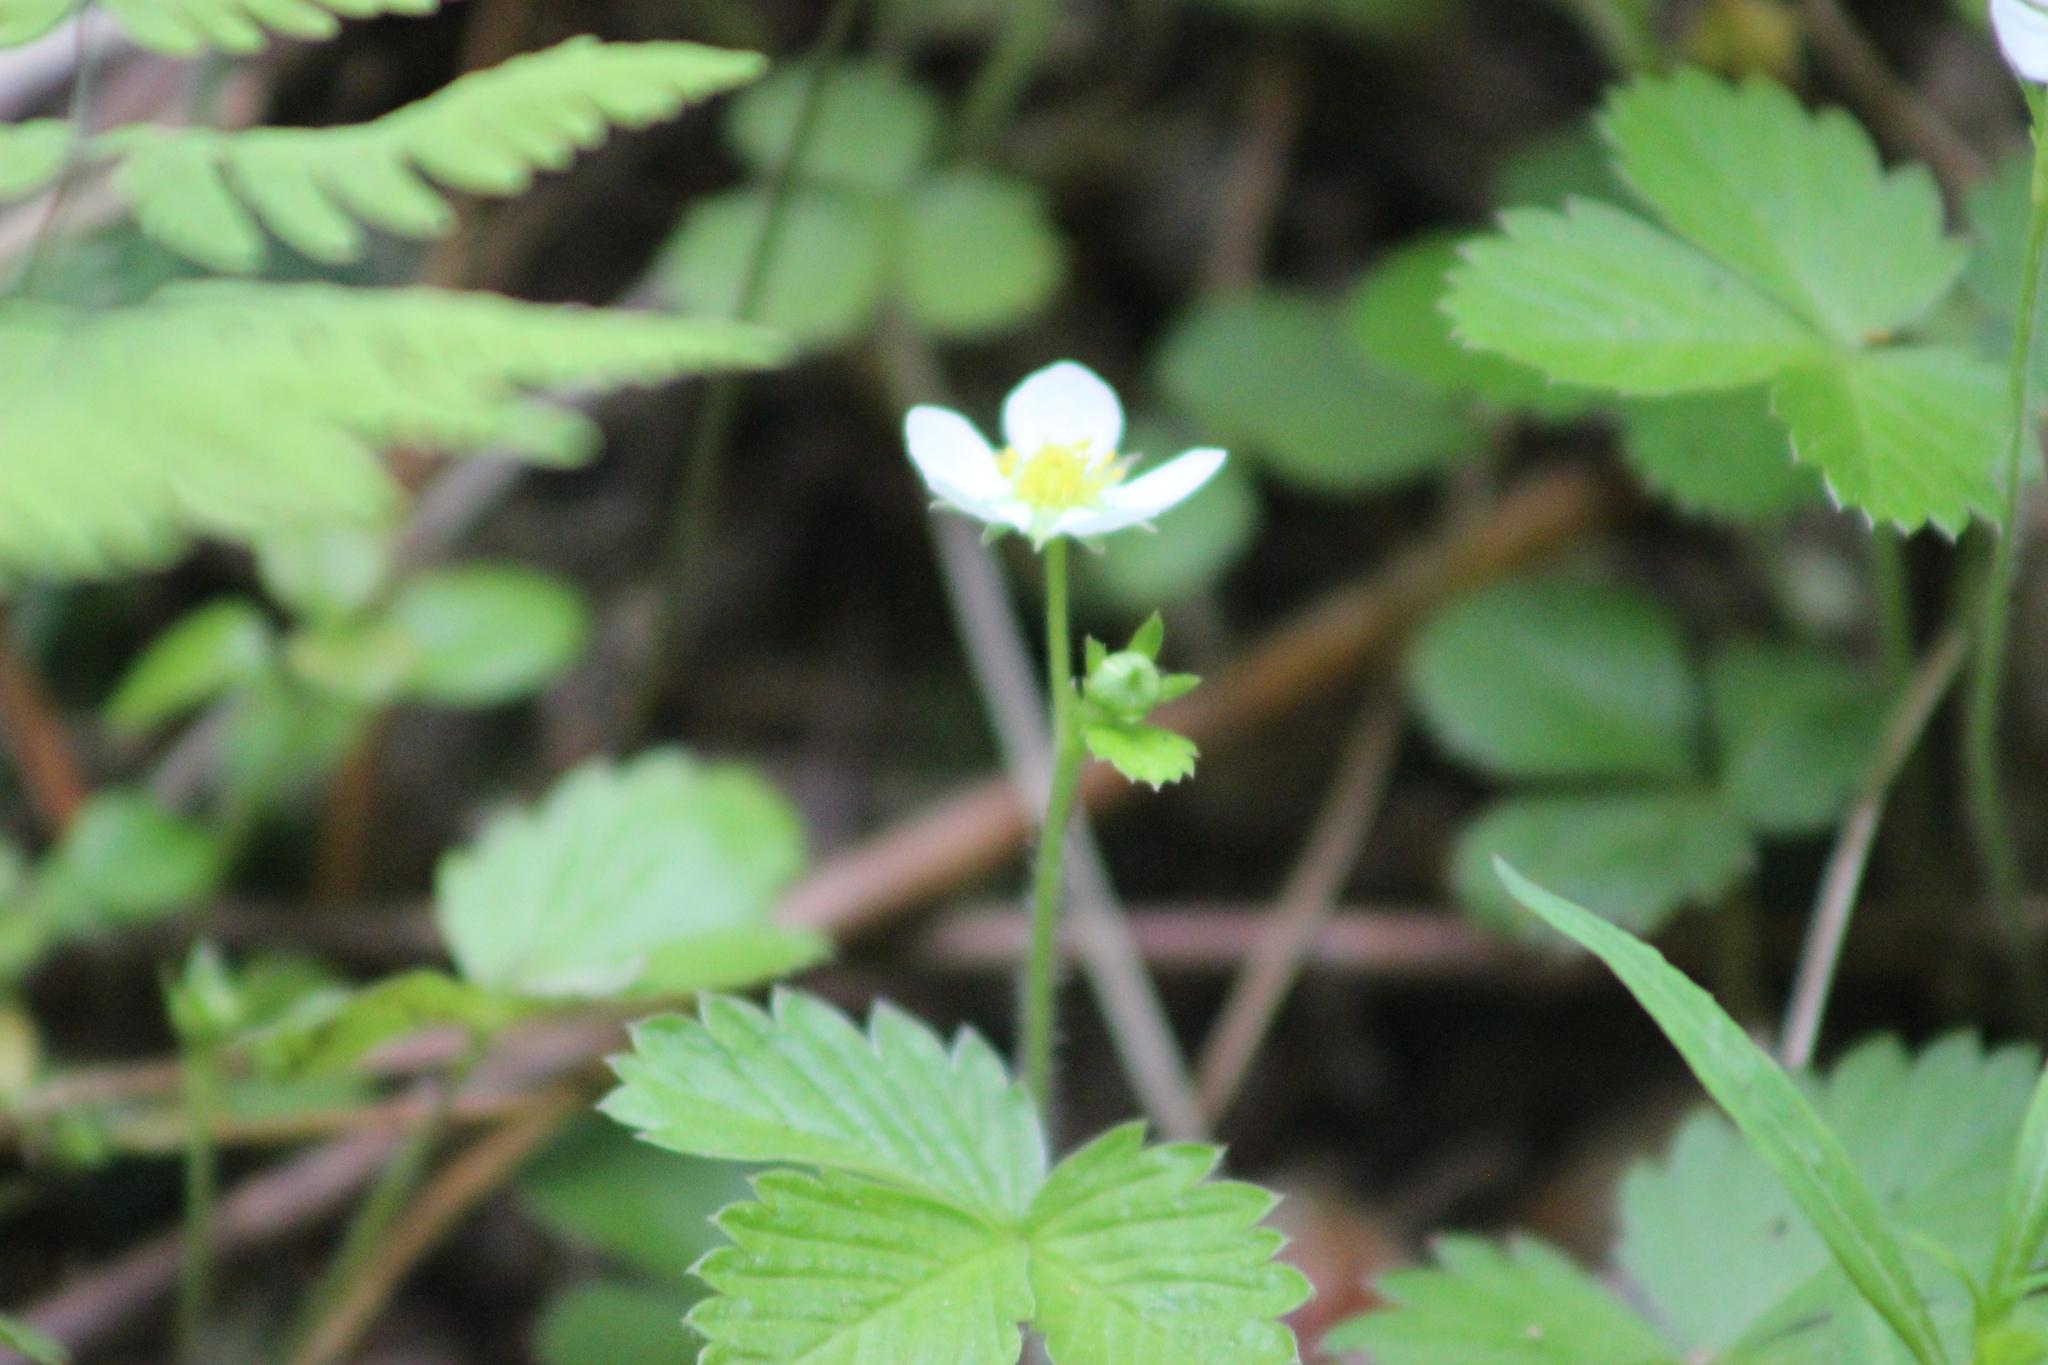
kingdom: Plantae
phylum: Tracheophyta
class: Magnoliopsida
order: Rosales
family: Rosaceae
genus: Fragaria
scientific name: Fragaria vesca
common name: Wild strawberry
